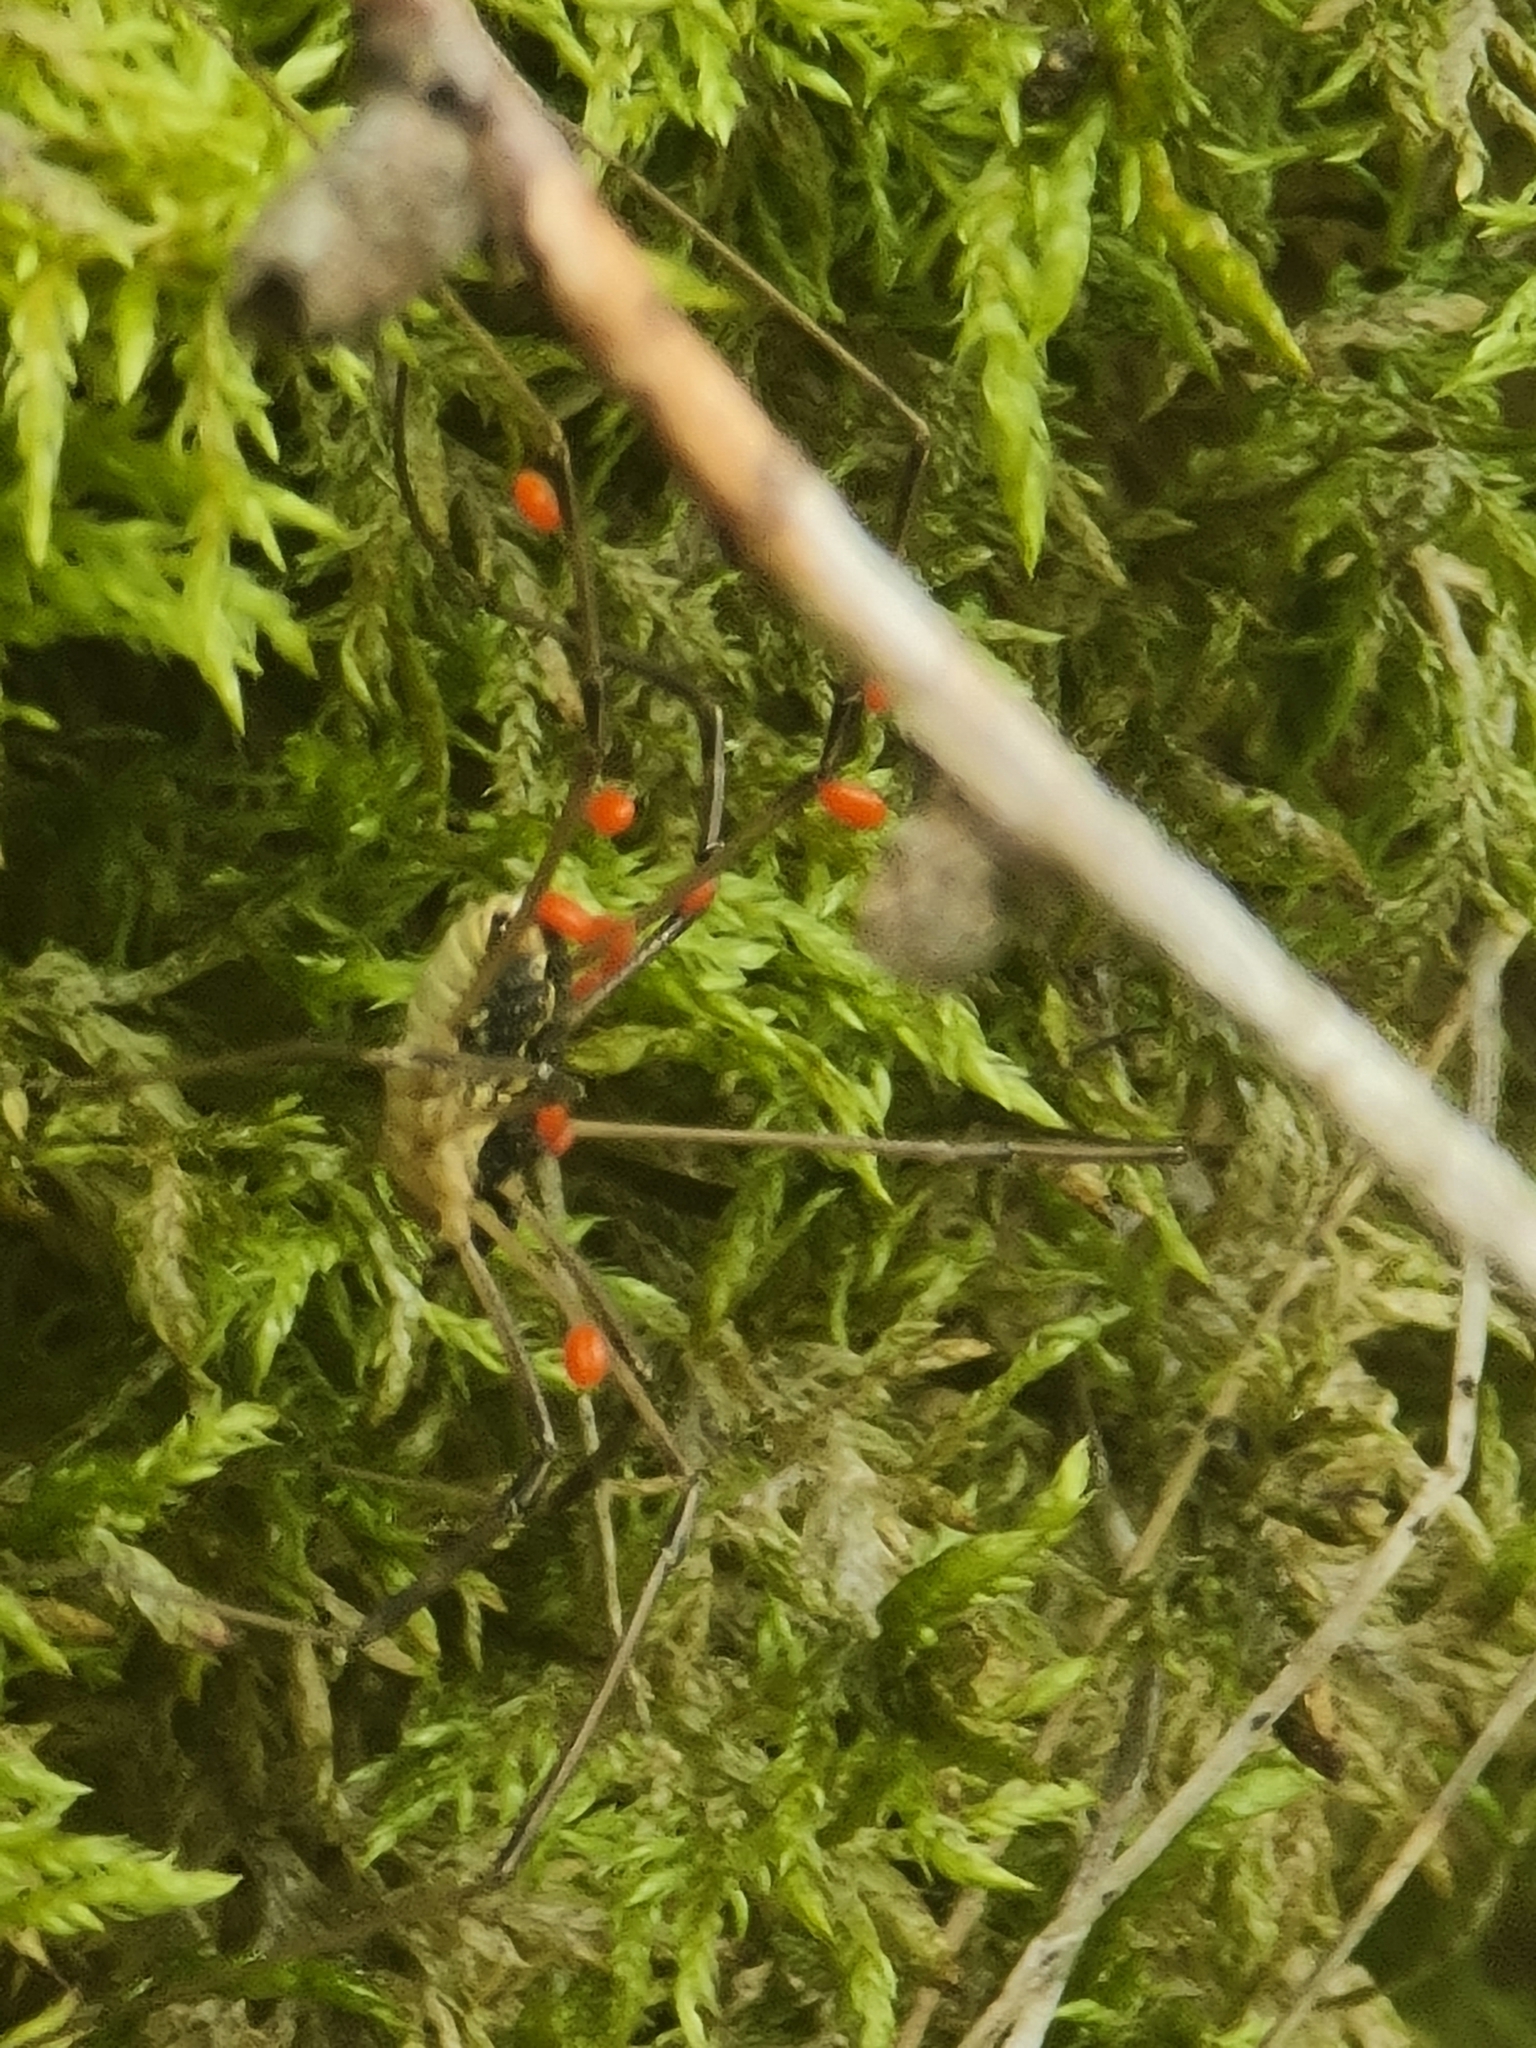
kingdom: Animalia
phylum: Arthropoda
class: Arachnida
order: Opiliones
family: Phalangiidae
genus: Mitopus
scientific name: Mitopus morio
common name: Saddleback harvestman
